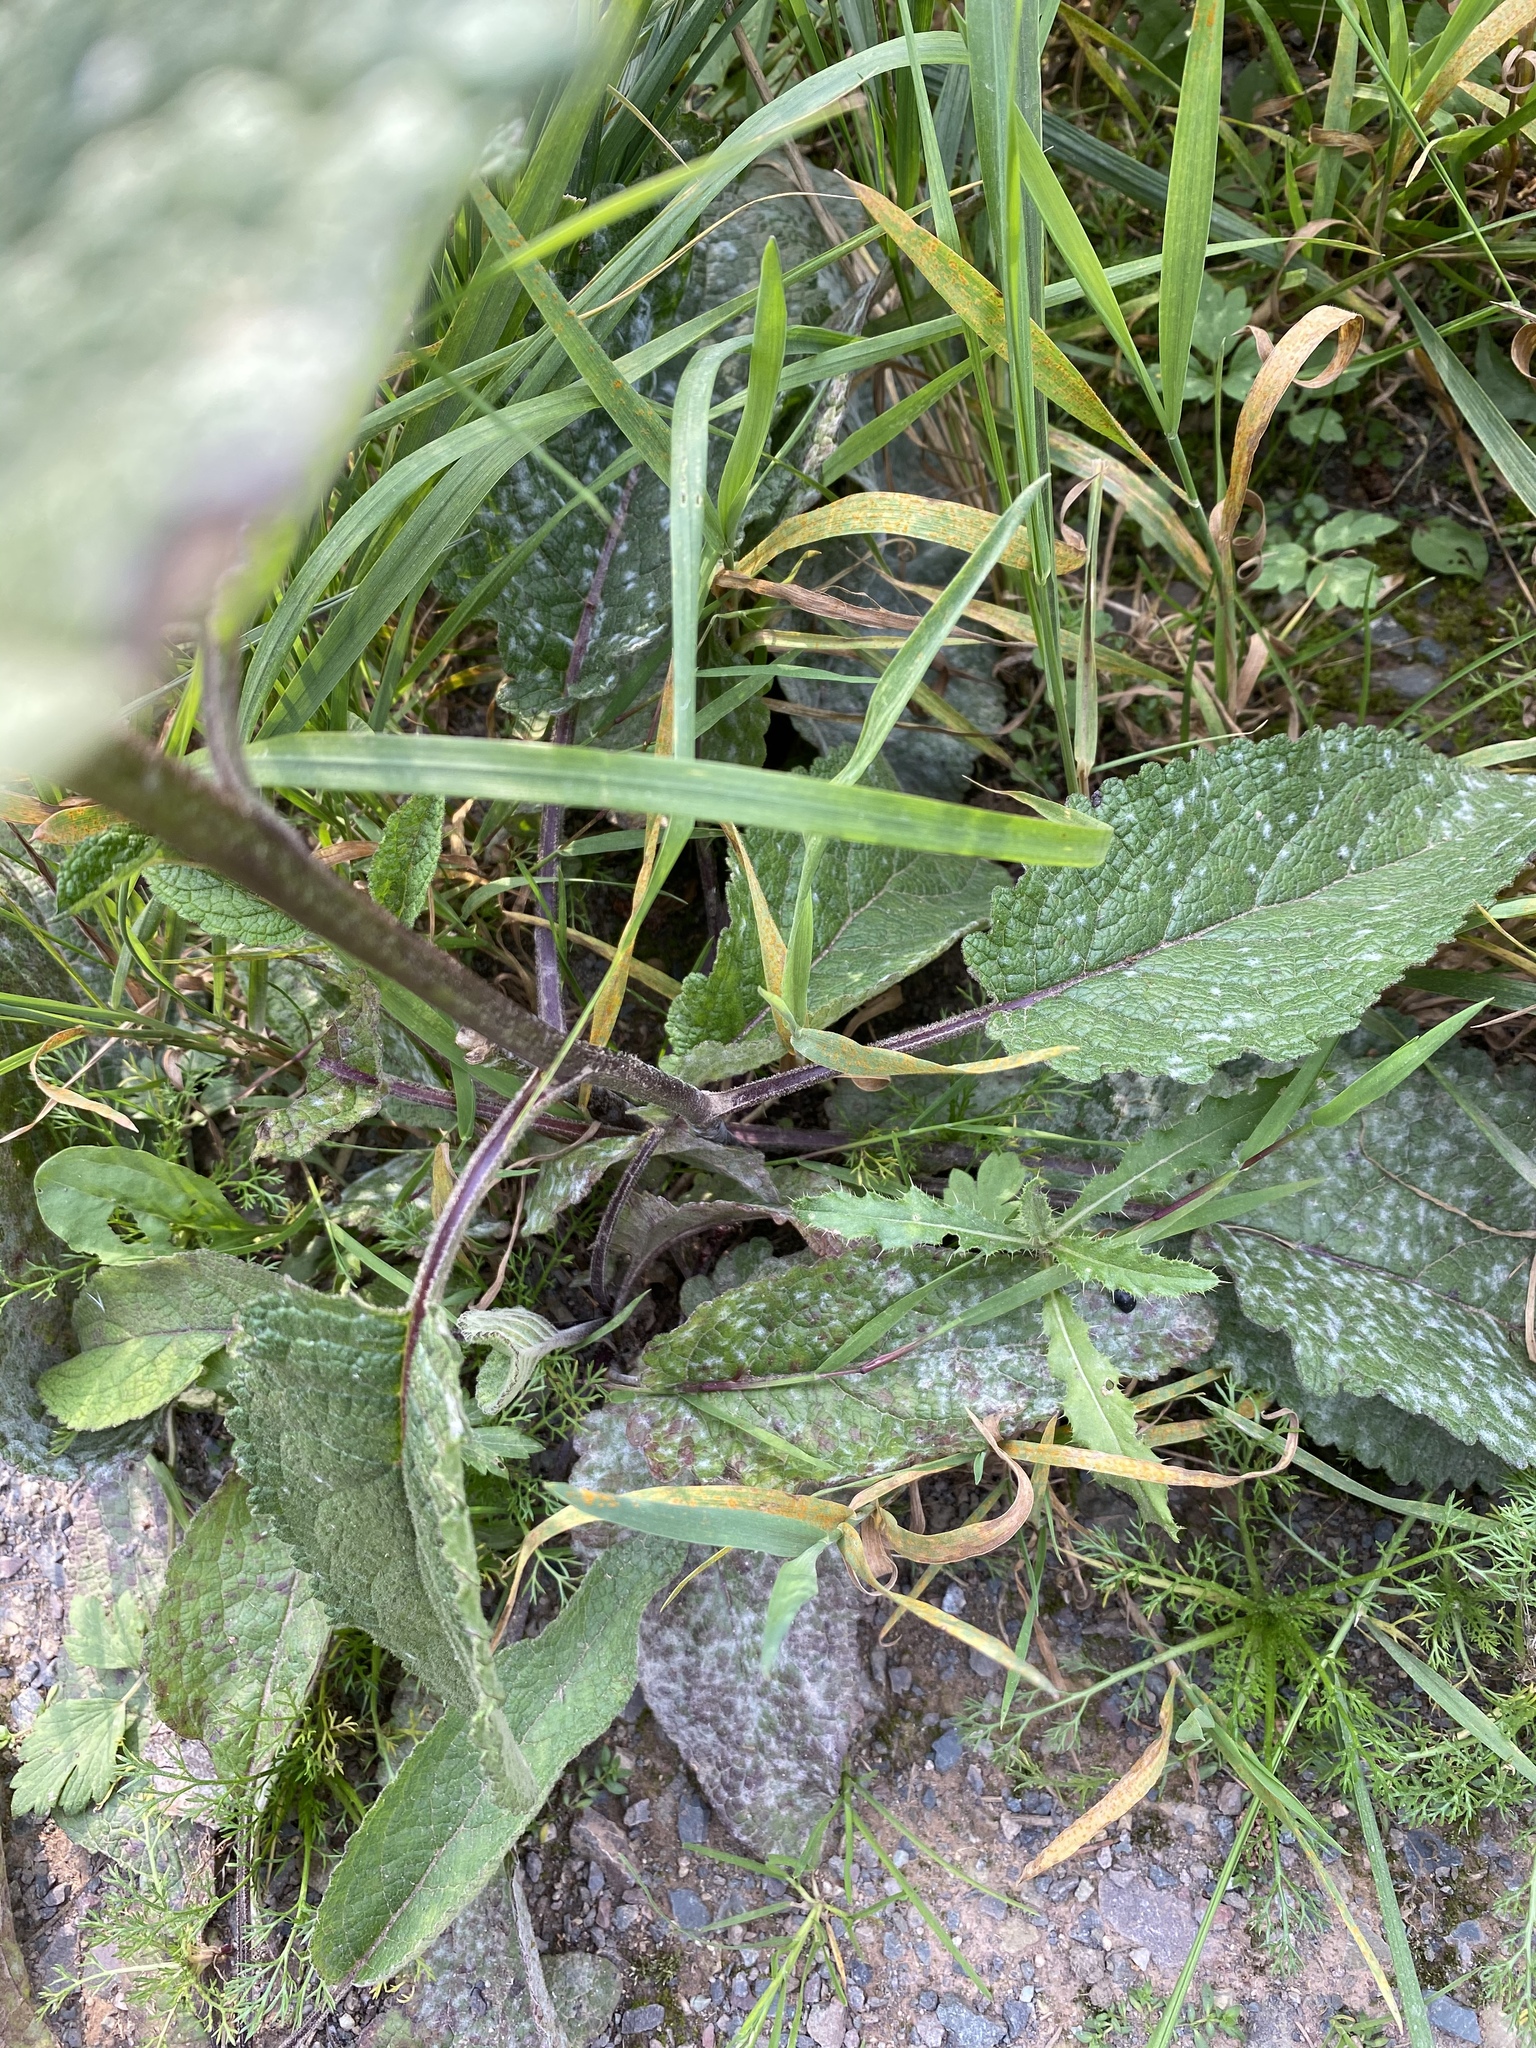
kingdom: Plantae
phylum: Tracheophyta
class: Magnoliopsida
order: Lamiales
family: Scrophulariaceae
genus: Verbascum
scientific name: Verbascum nigrum
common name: Dark mullein
